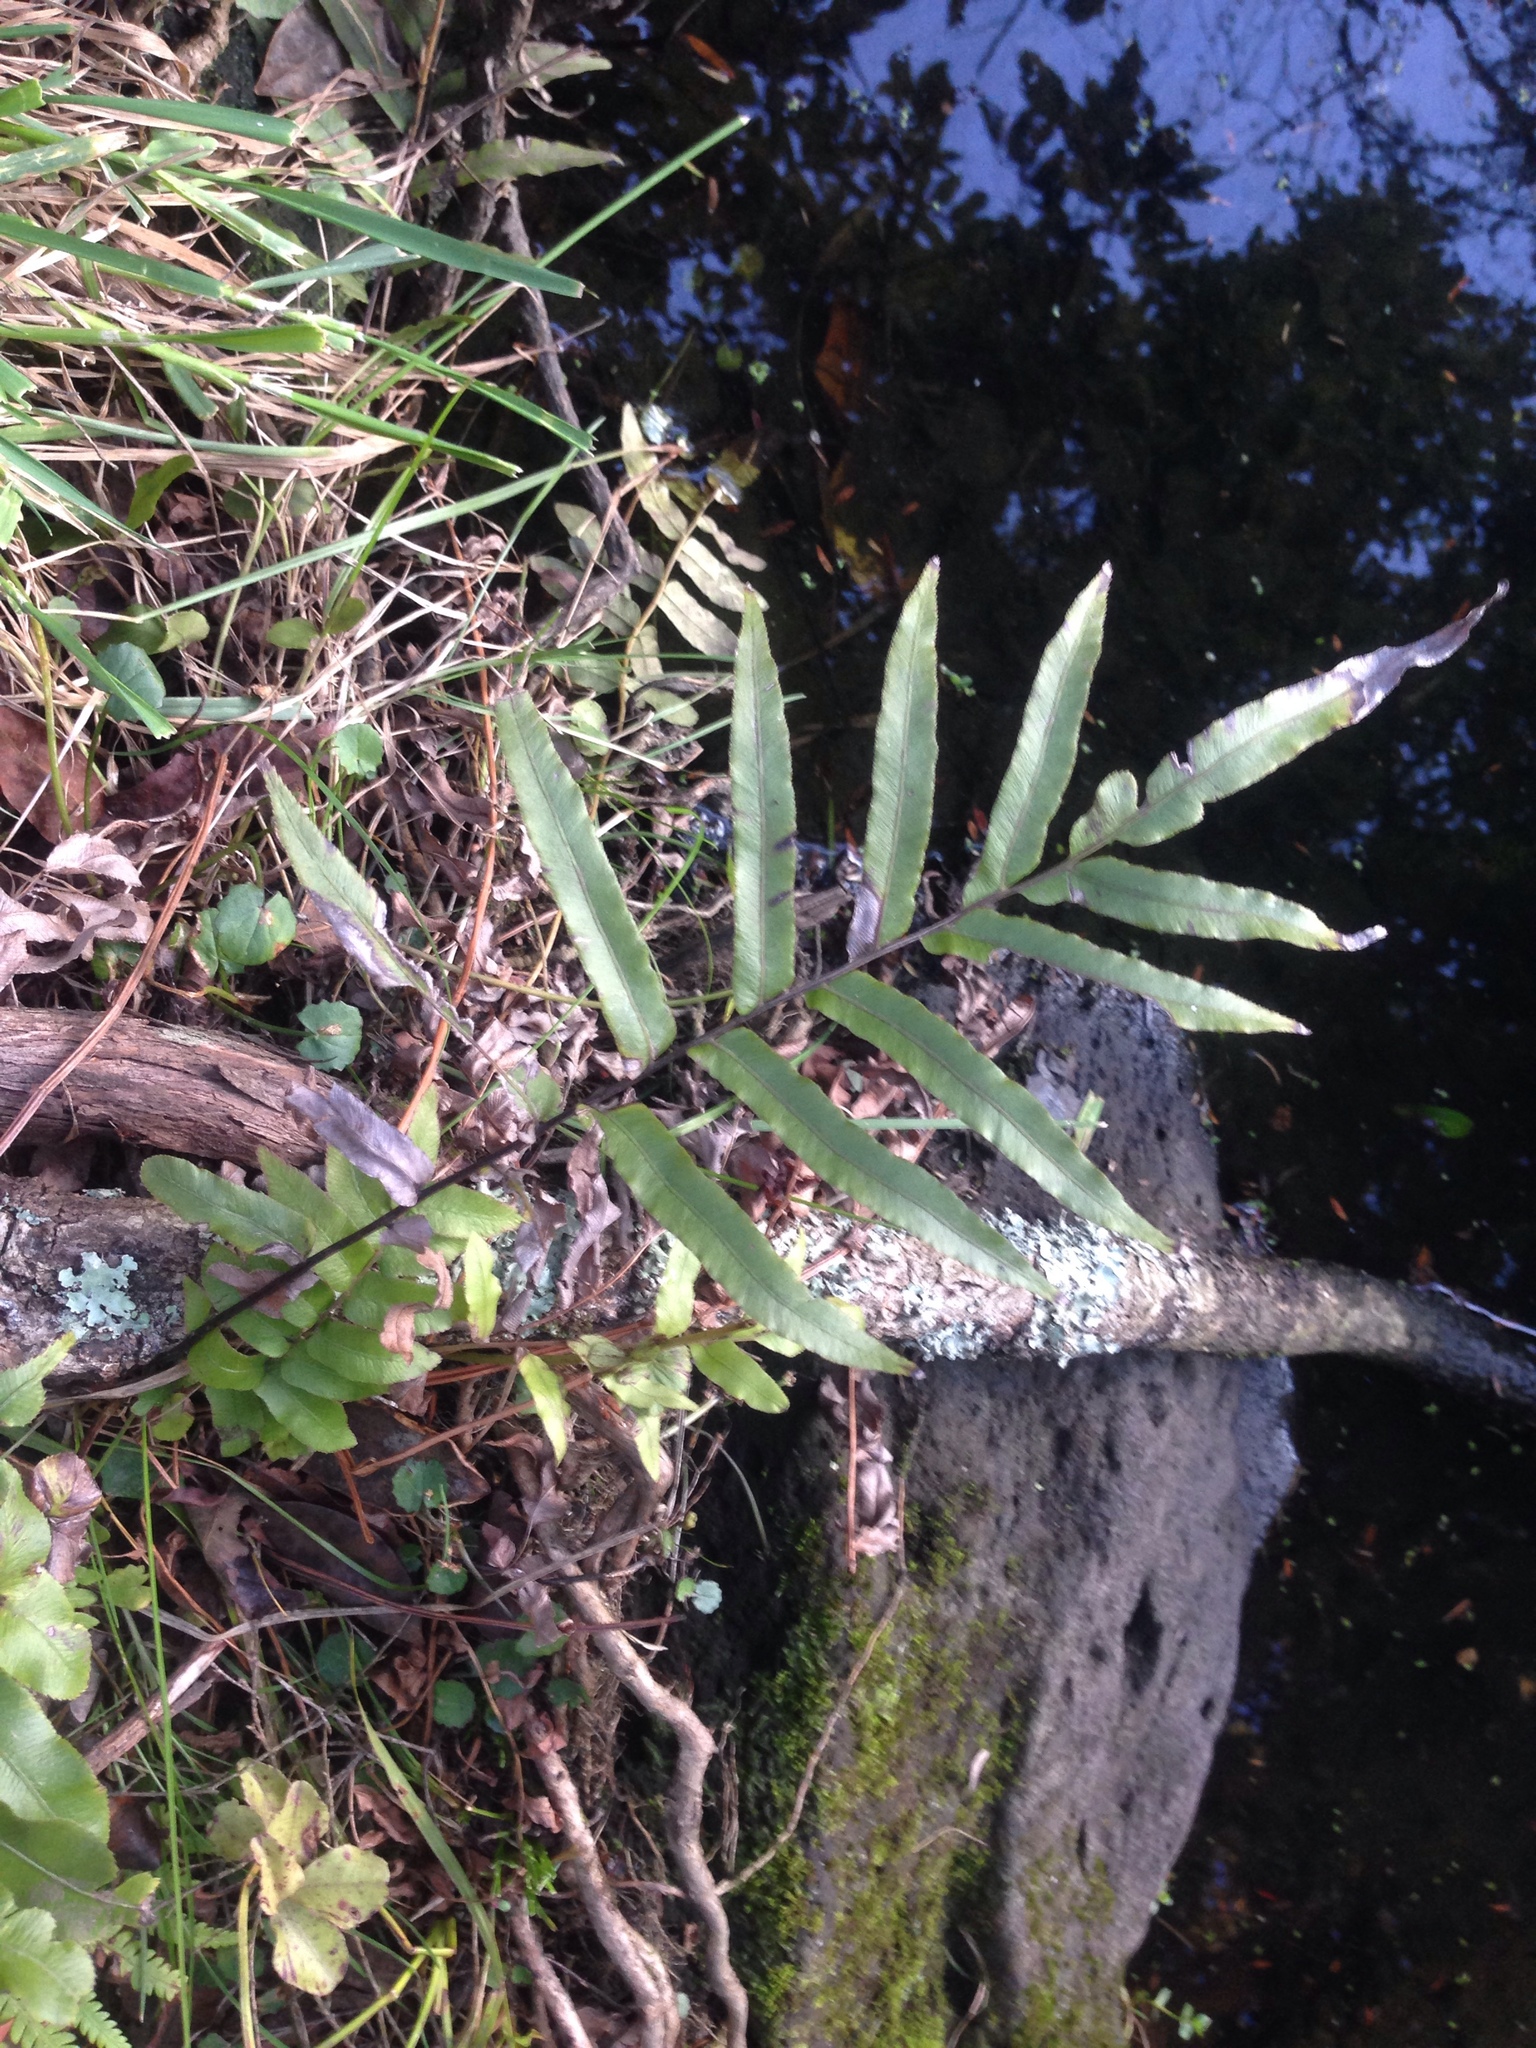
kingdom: Plantae
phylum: Tracheophyta
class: Polypodiopsida
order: Polypodiales
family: Blechnaceae
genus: Parablechnum
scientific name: Parablechnum minus
